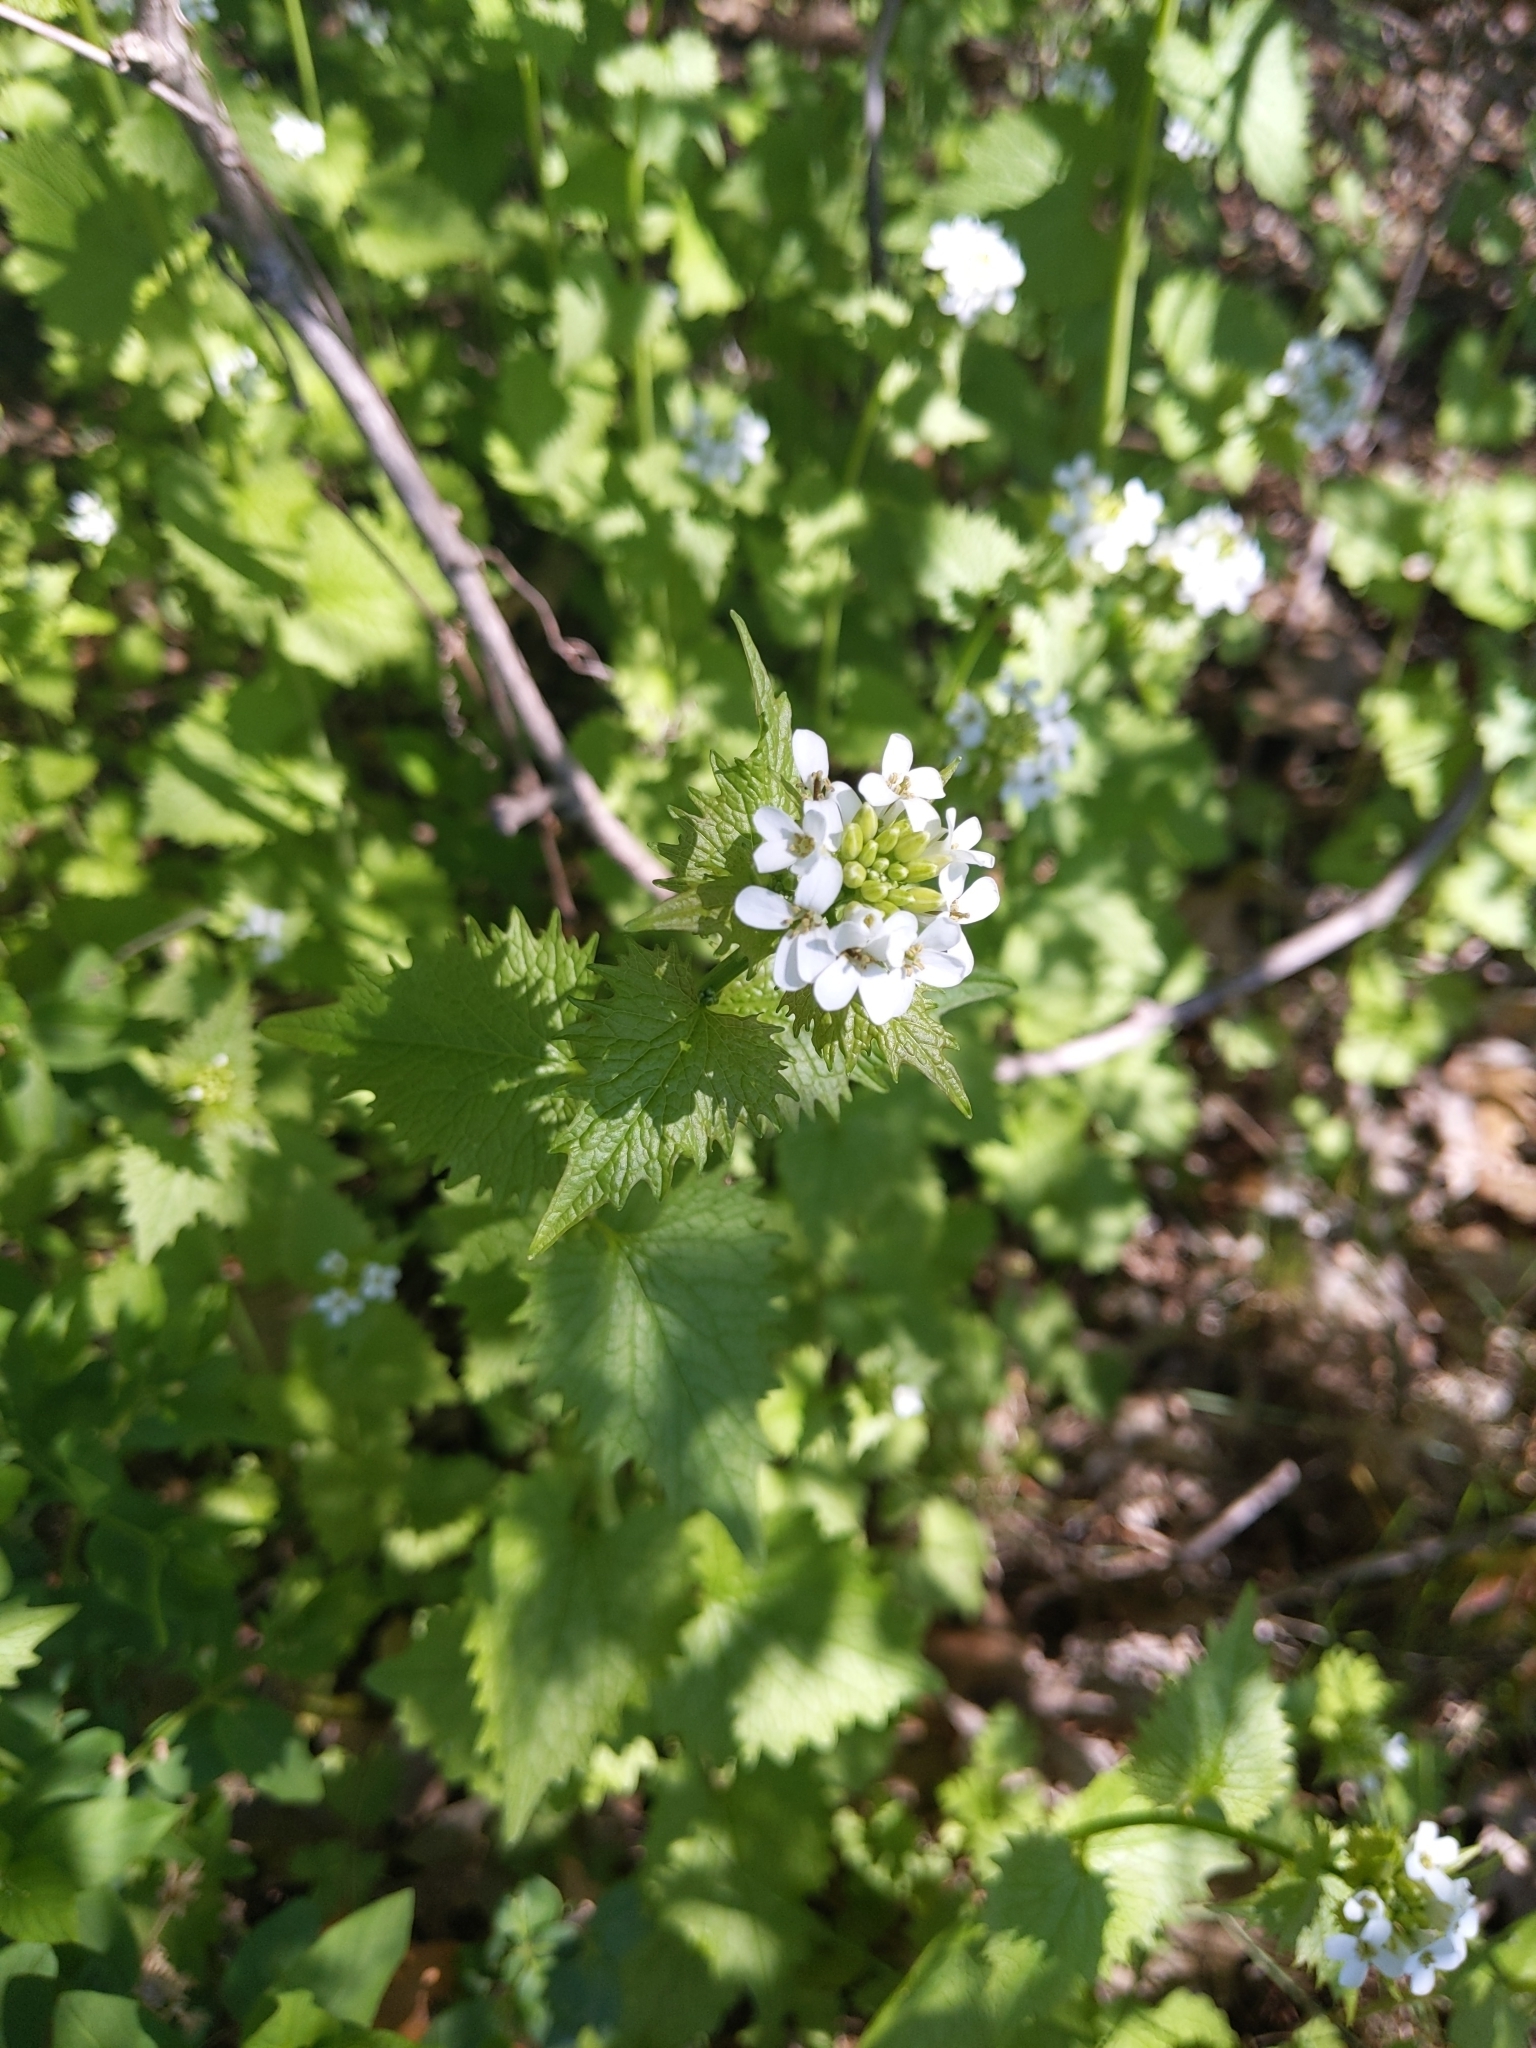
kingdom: Plantae
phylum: Tracheophyta
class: Magnoliopsida
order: Brassicales
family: Brassicaceae
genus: Alliaria
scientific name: Alliaria petiolata
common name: Garlic mustard
